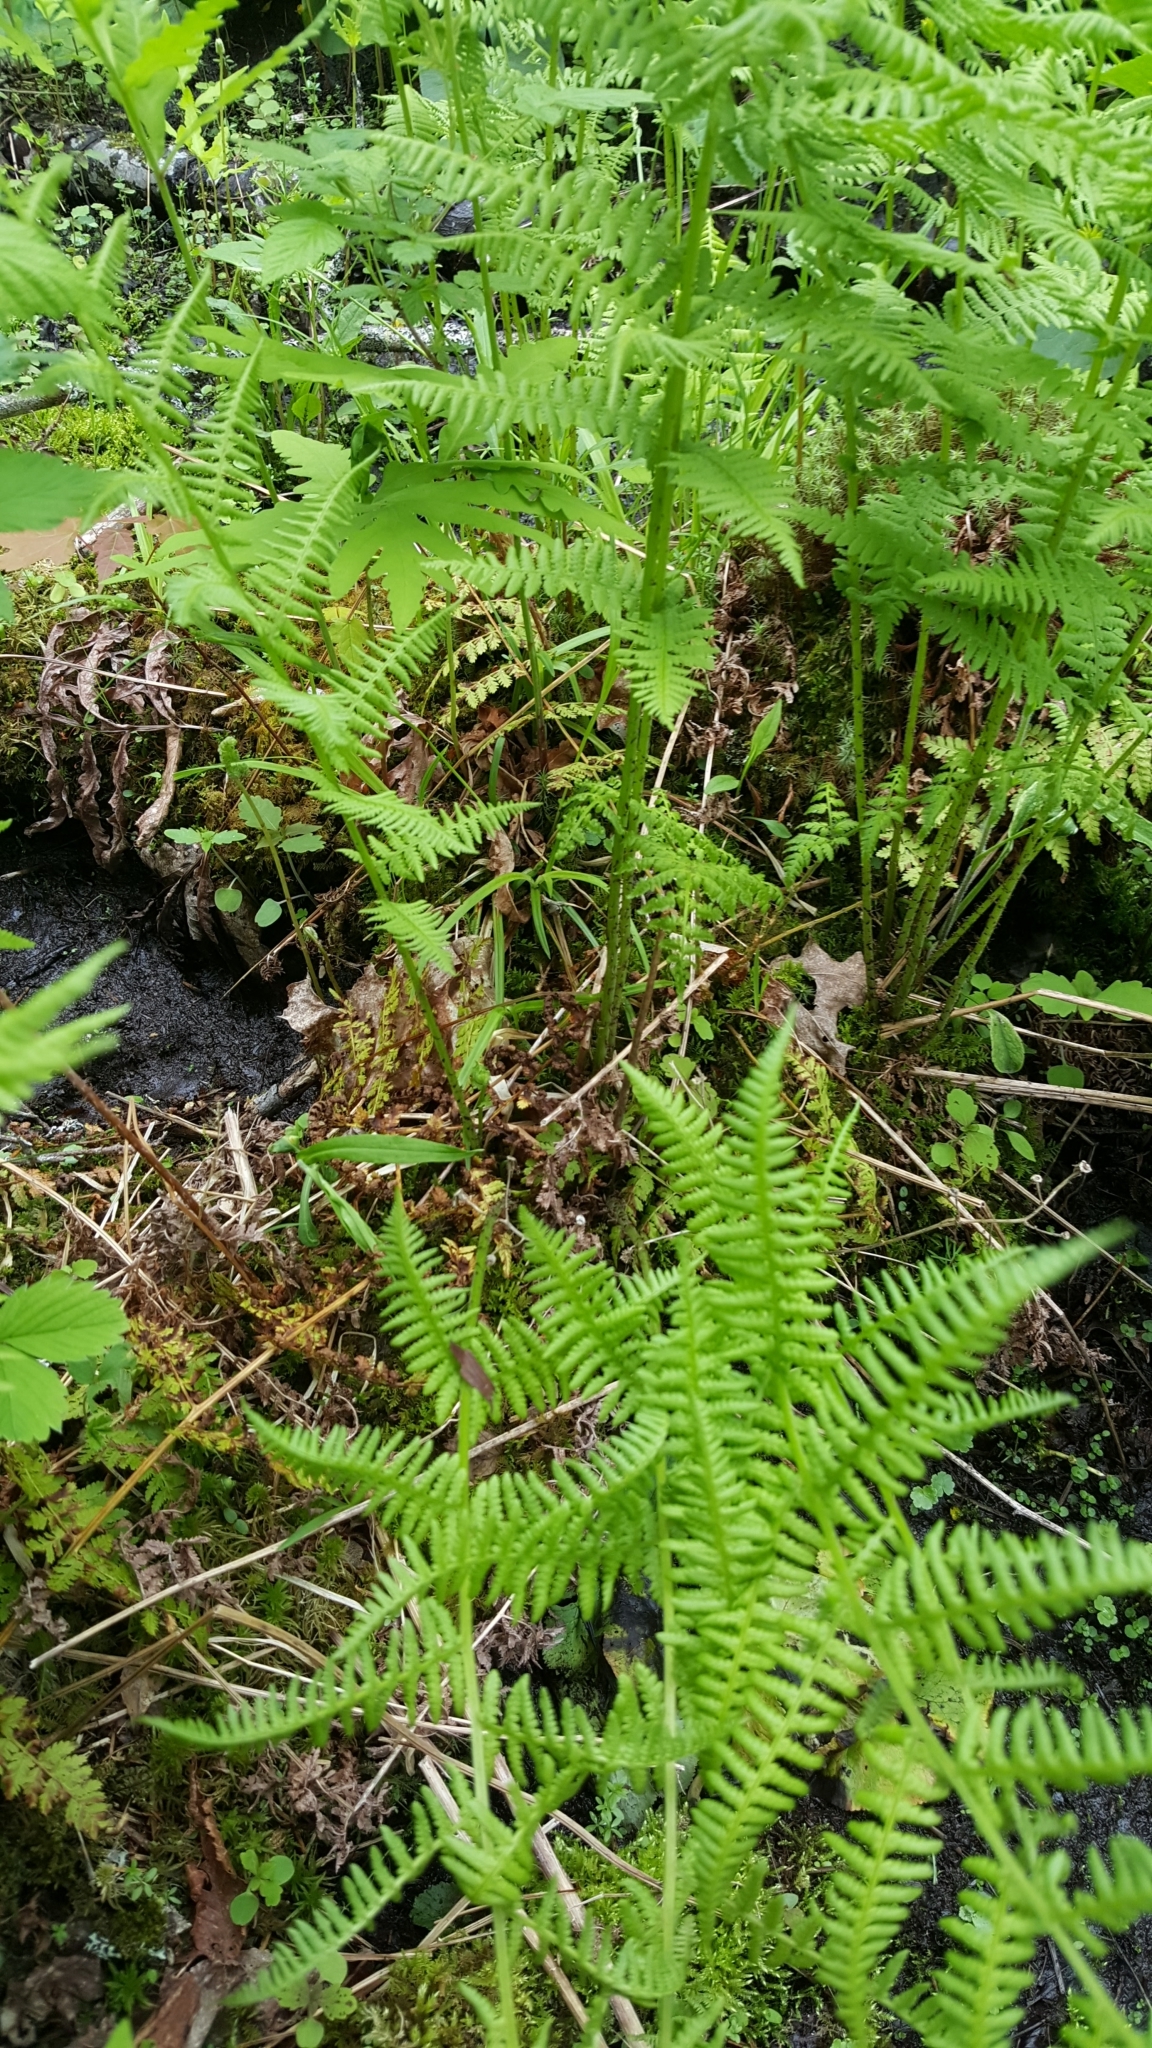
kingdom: Plantae
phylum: Tracheophyta
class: Polypodiopsida
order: Polypodiales
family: Athyriaceae
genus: Athyrium
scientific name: Athyrium angustum
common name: Northern lady fern
